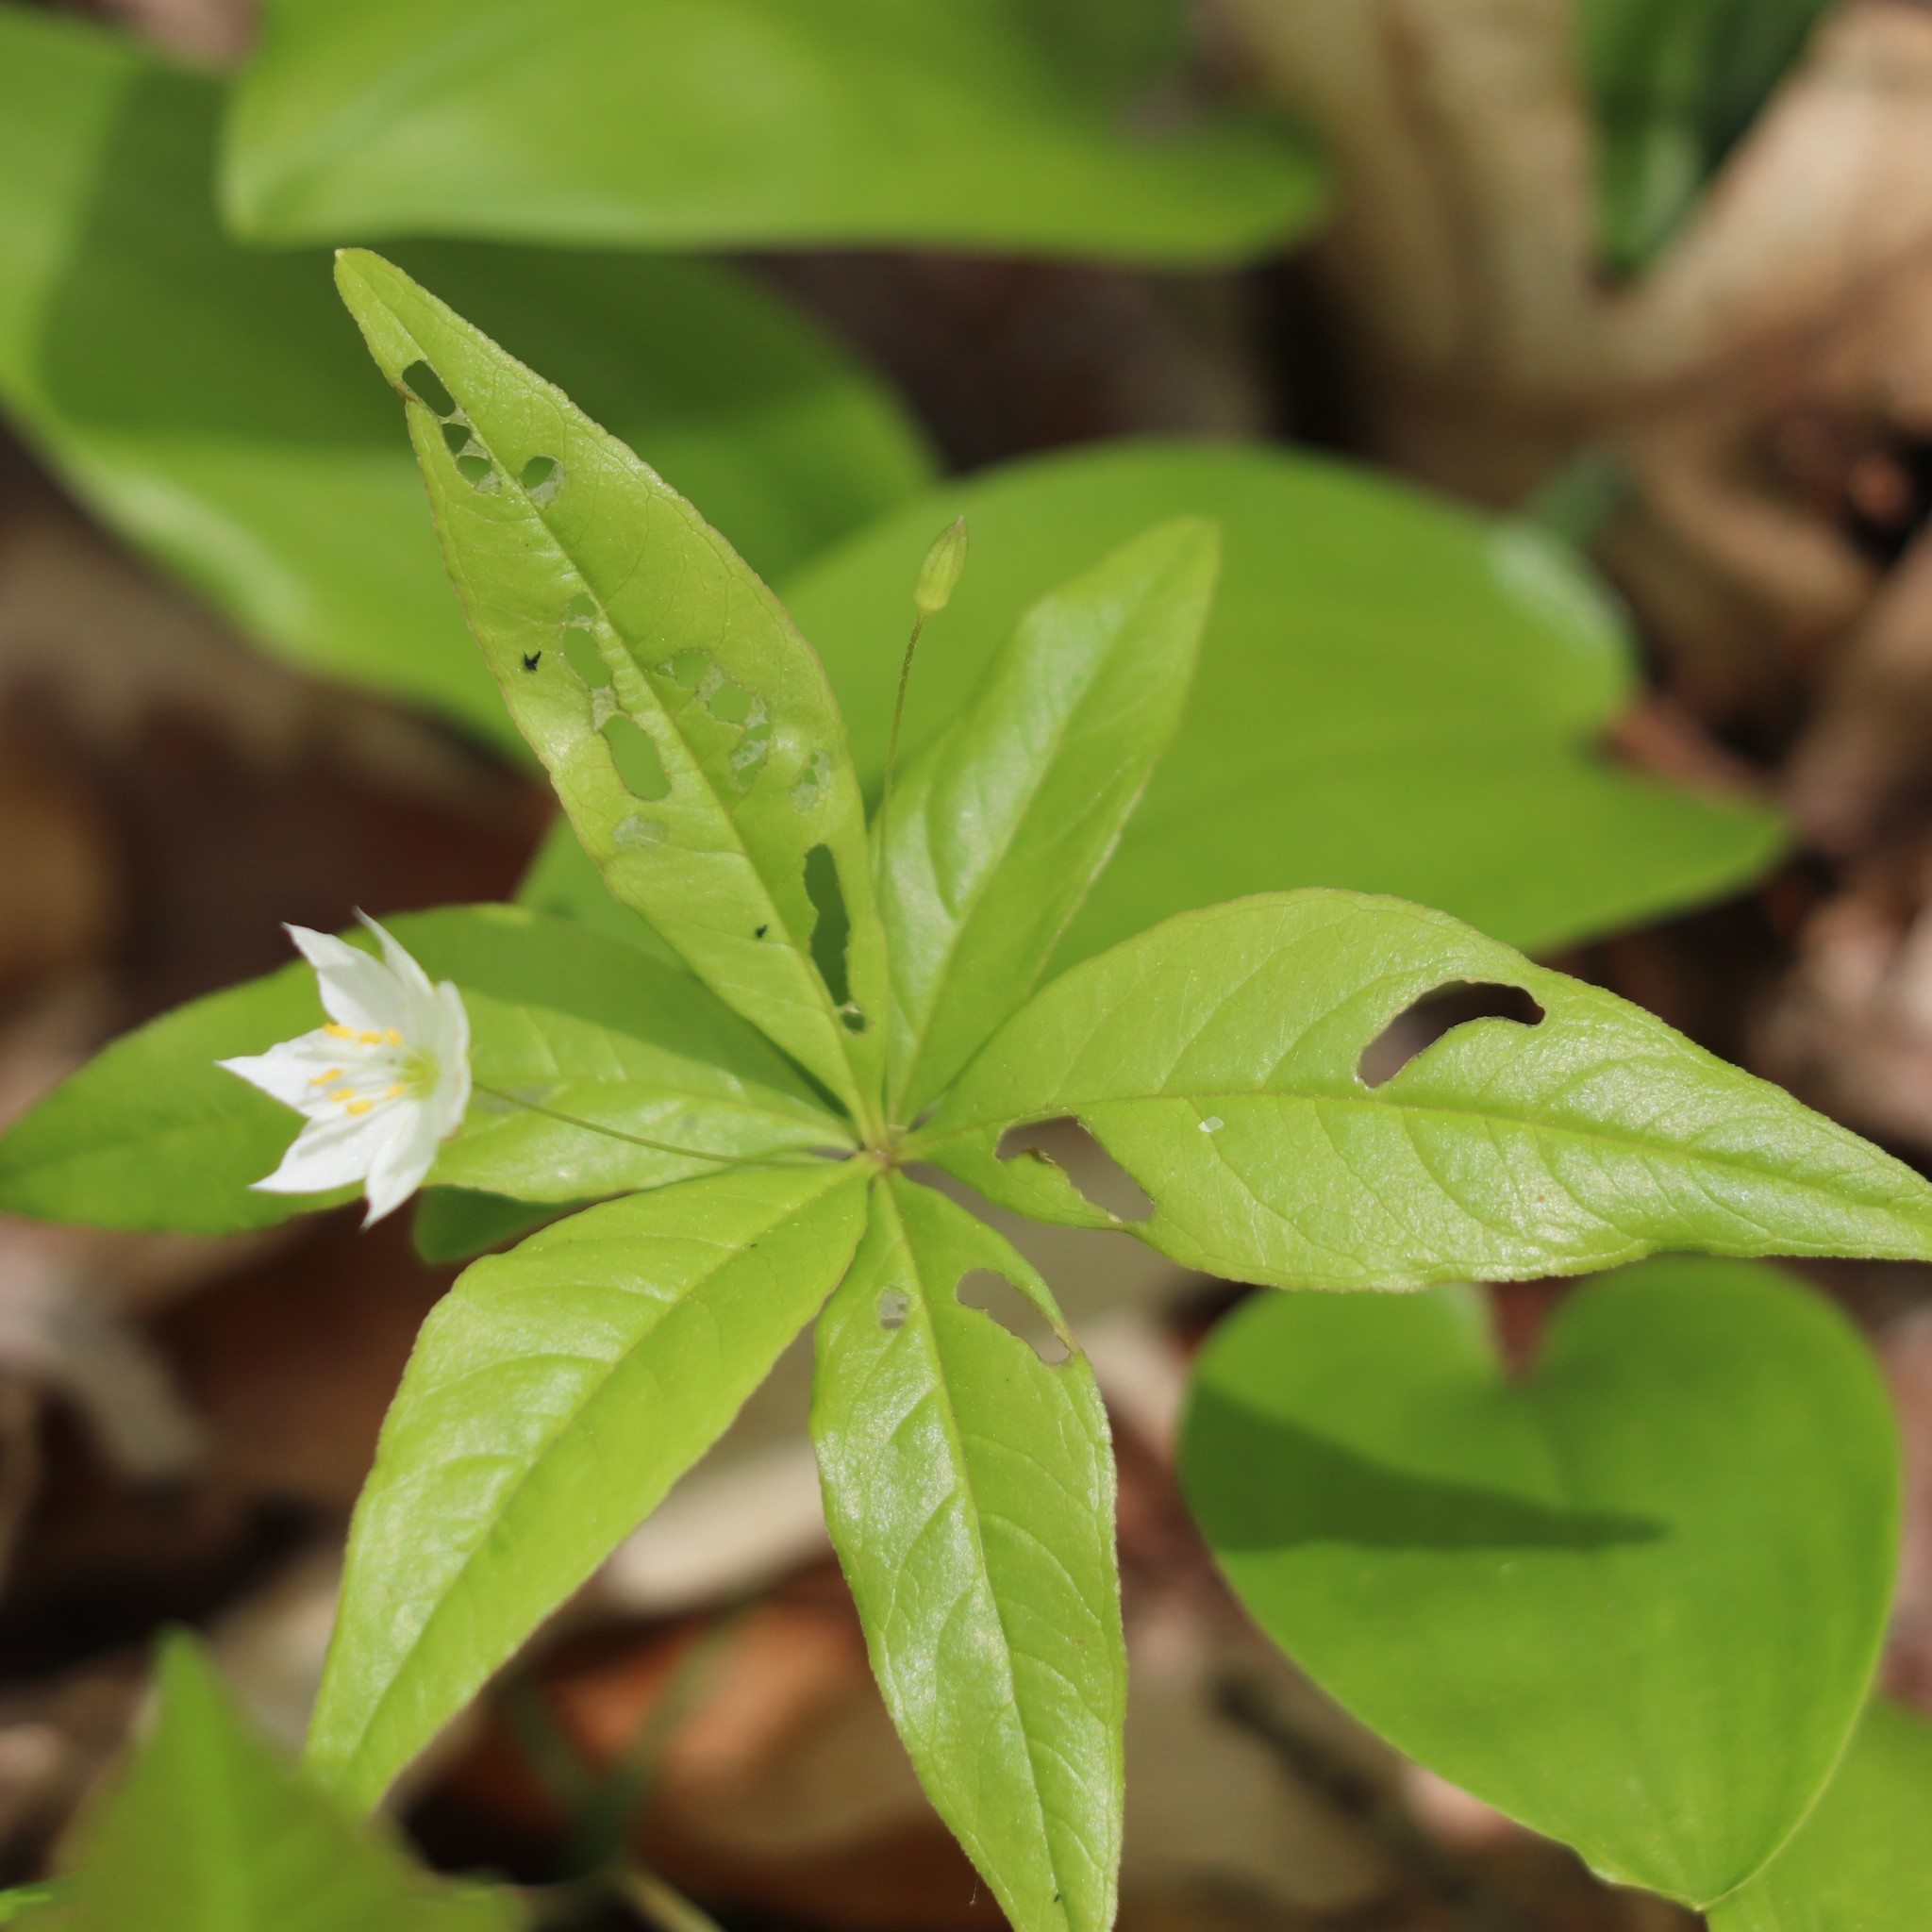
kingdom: Plantae
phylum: Tracheophyta
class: Magnoliopsida
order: Ericales
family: Primulaceae
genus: Lysimachia
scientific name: Lysimachia borealis
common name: American starflower
